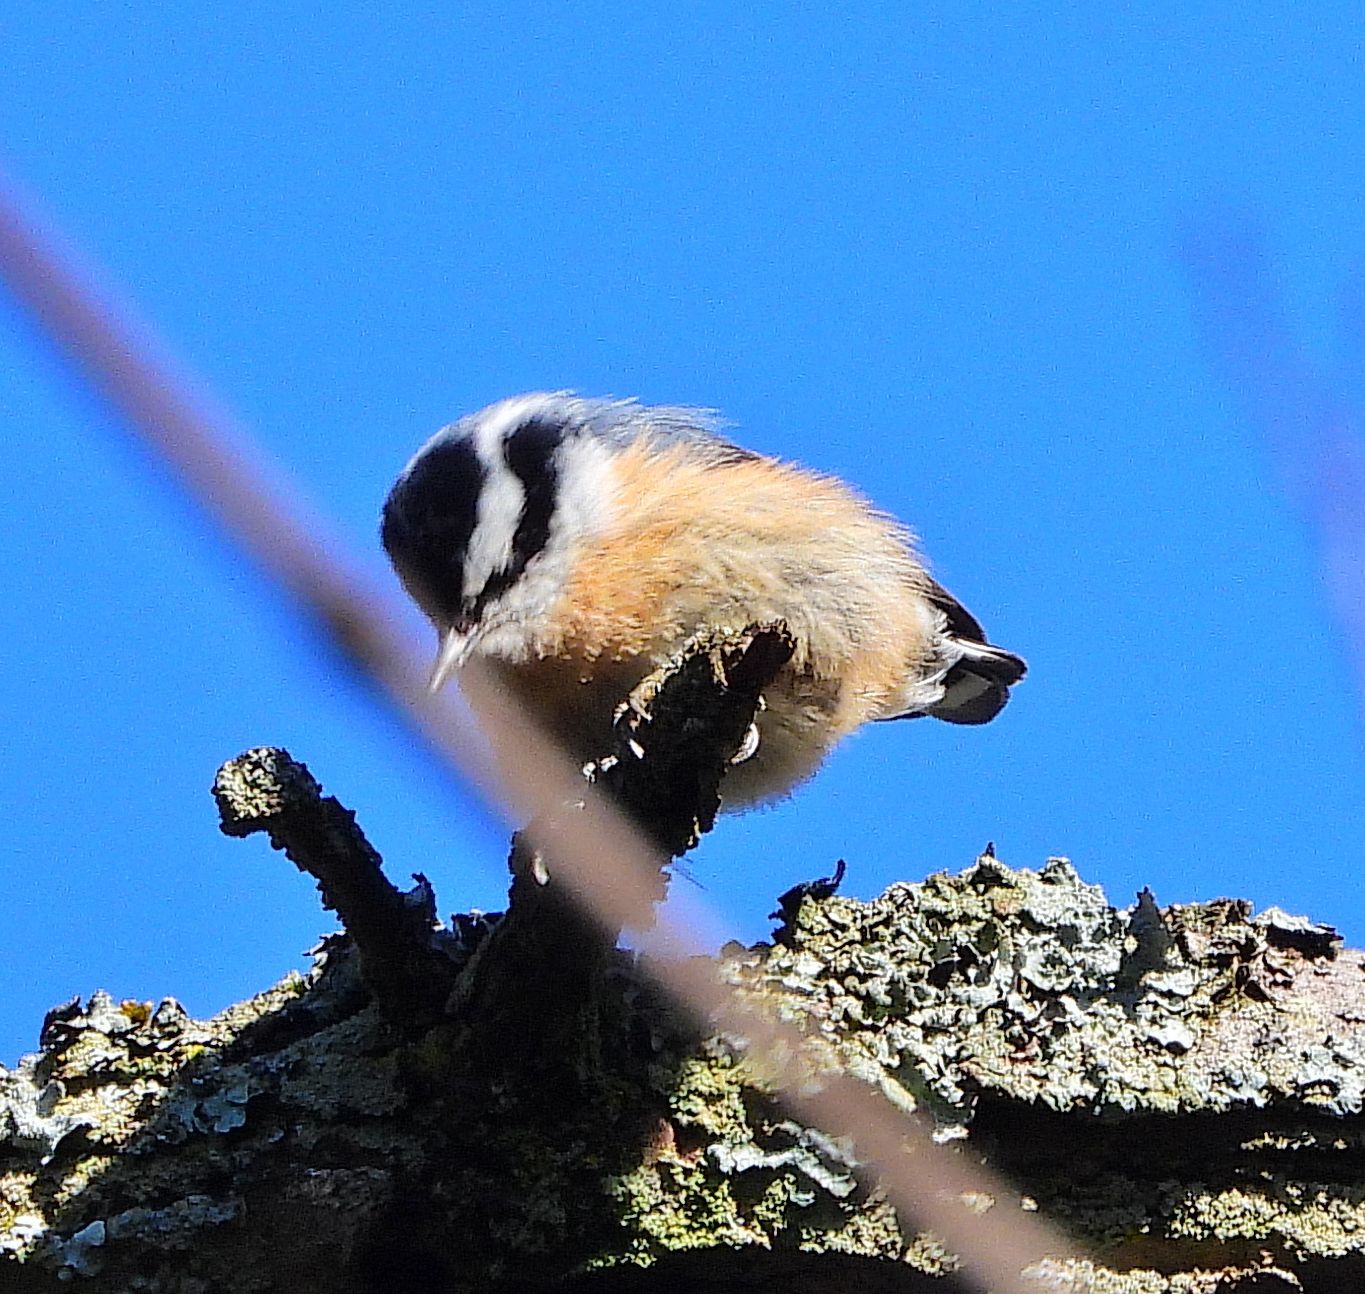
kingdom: Animalia
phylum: Chordata
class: Aves
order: Passeriformes
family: Sittidae
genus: Sitta
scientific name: Sitta canadensis
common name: Red-breasted nuthatch
